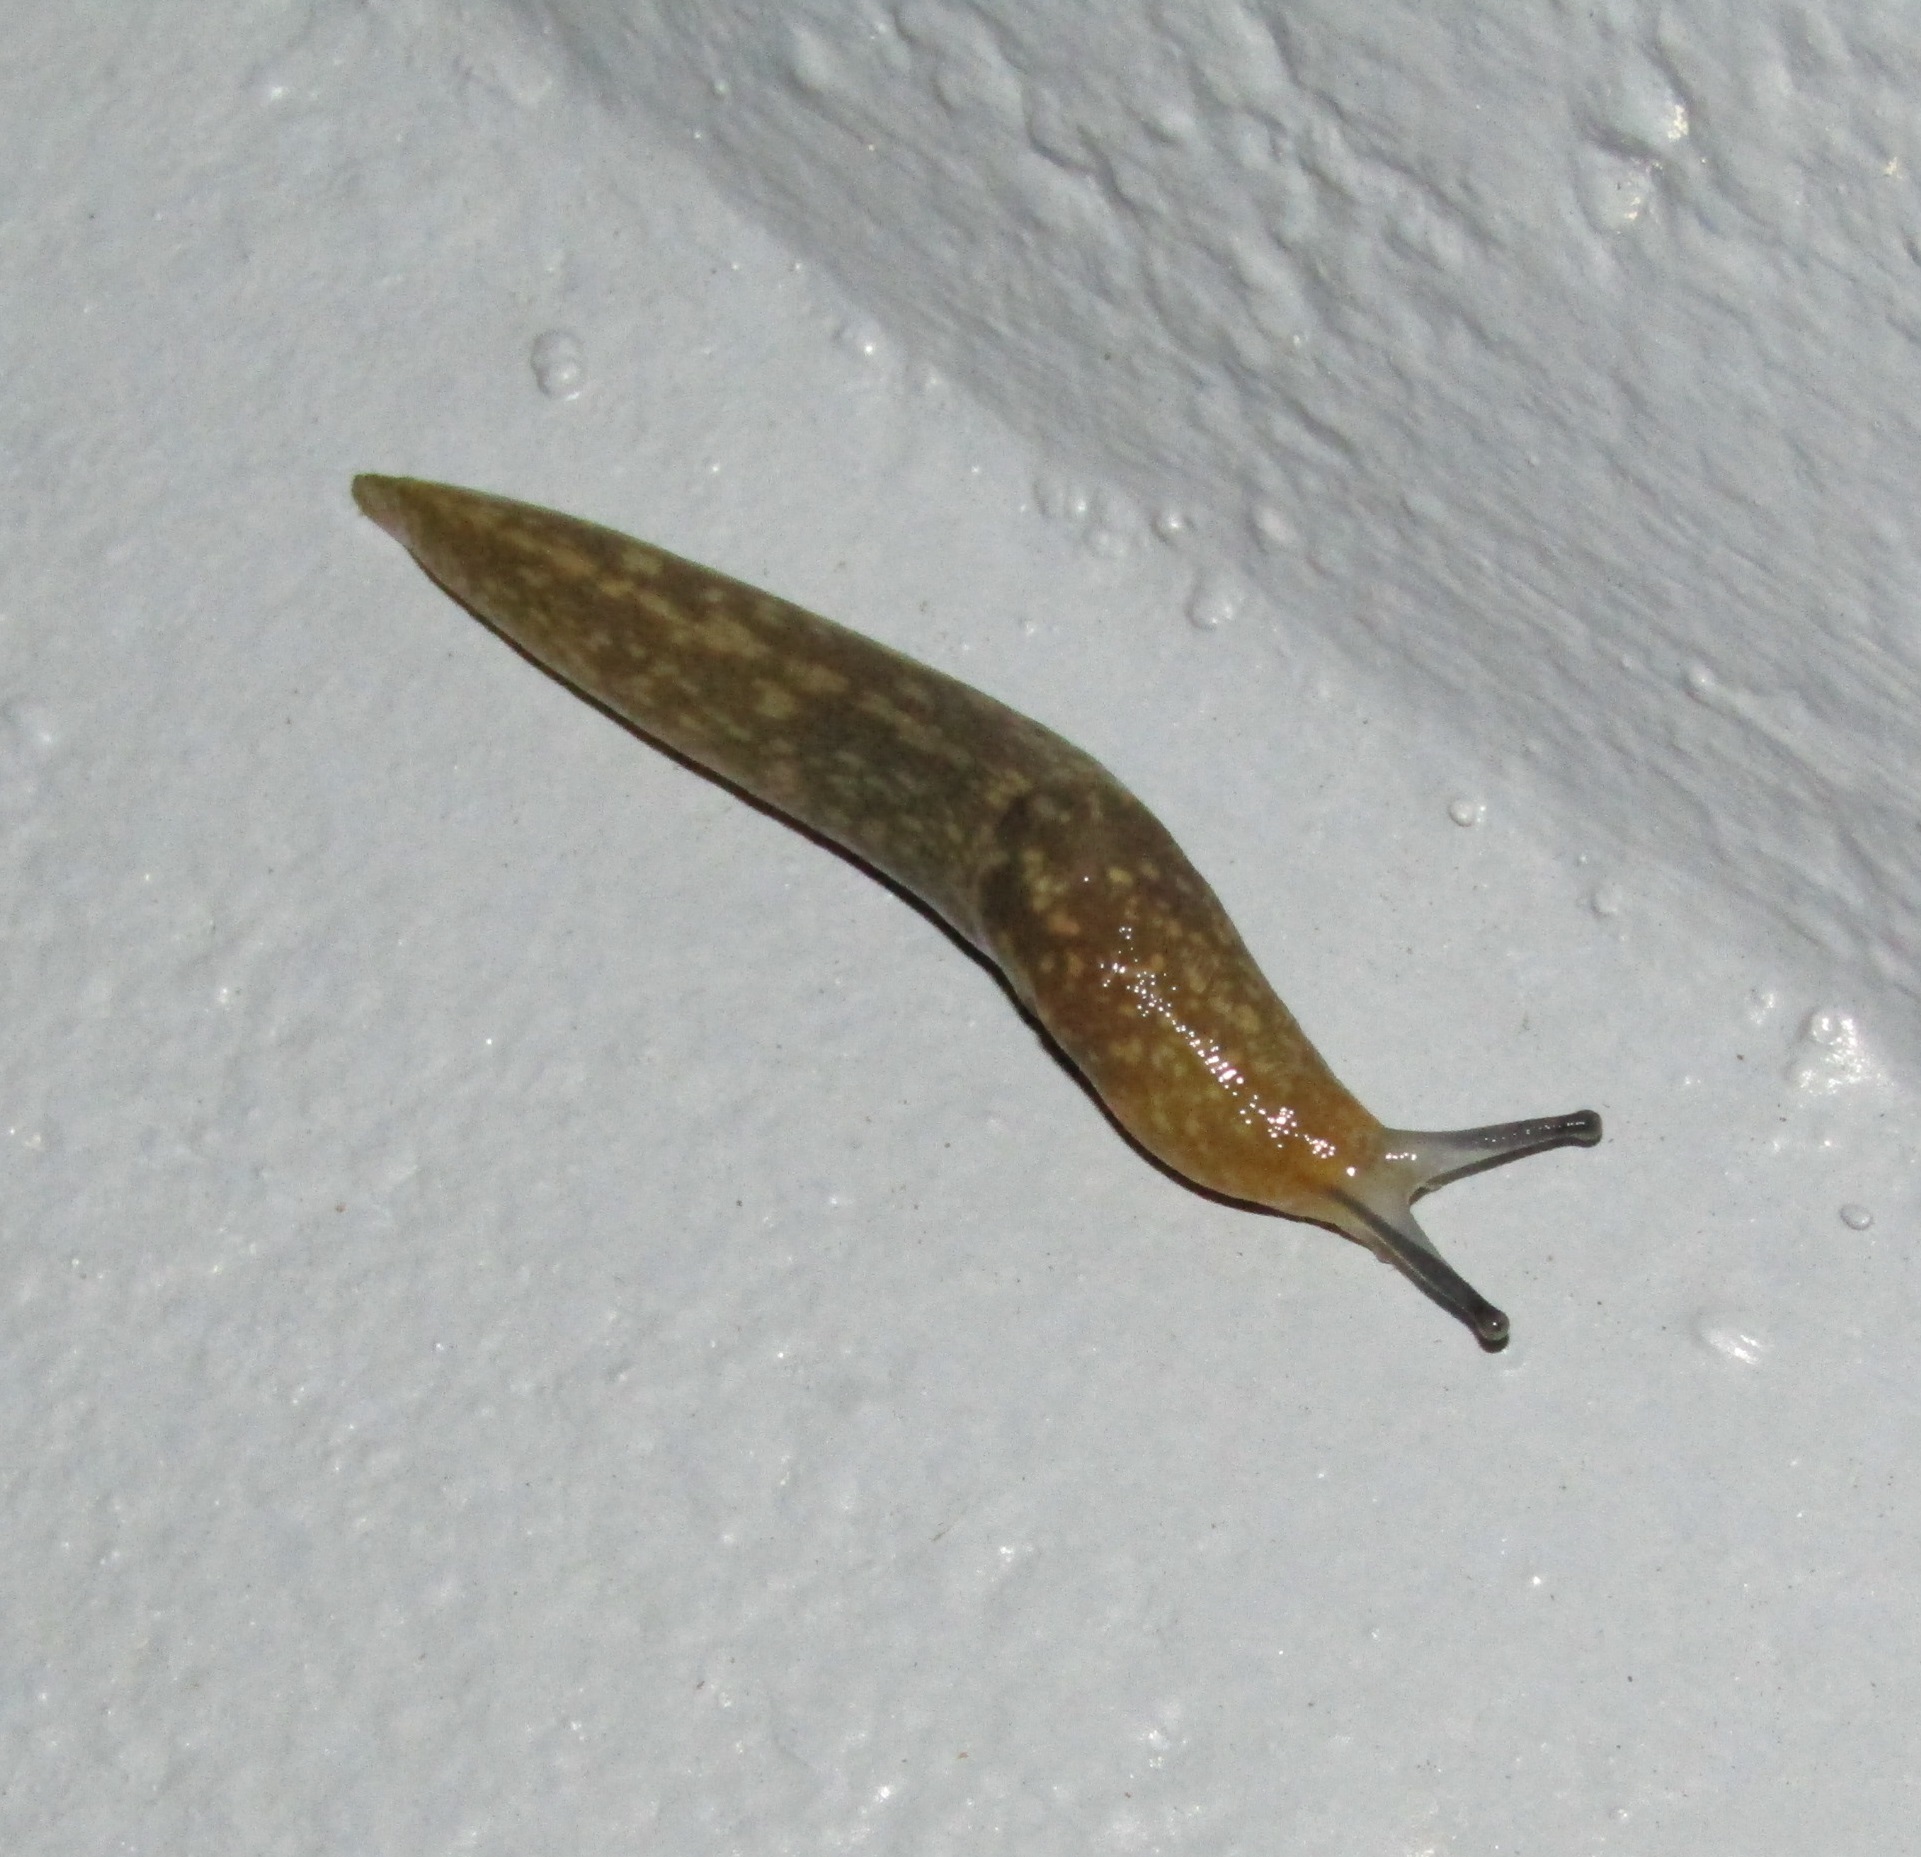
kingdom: Animalia
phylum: Mollusca
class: Gastropoda
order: Stylommatophora
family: Limacidae
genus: Limacus
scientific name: Limacus flavus
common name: Yellow gardenslug
